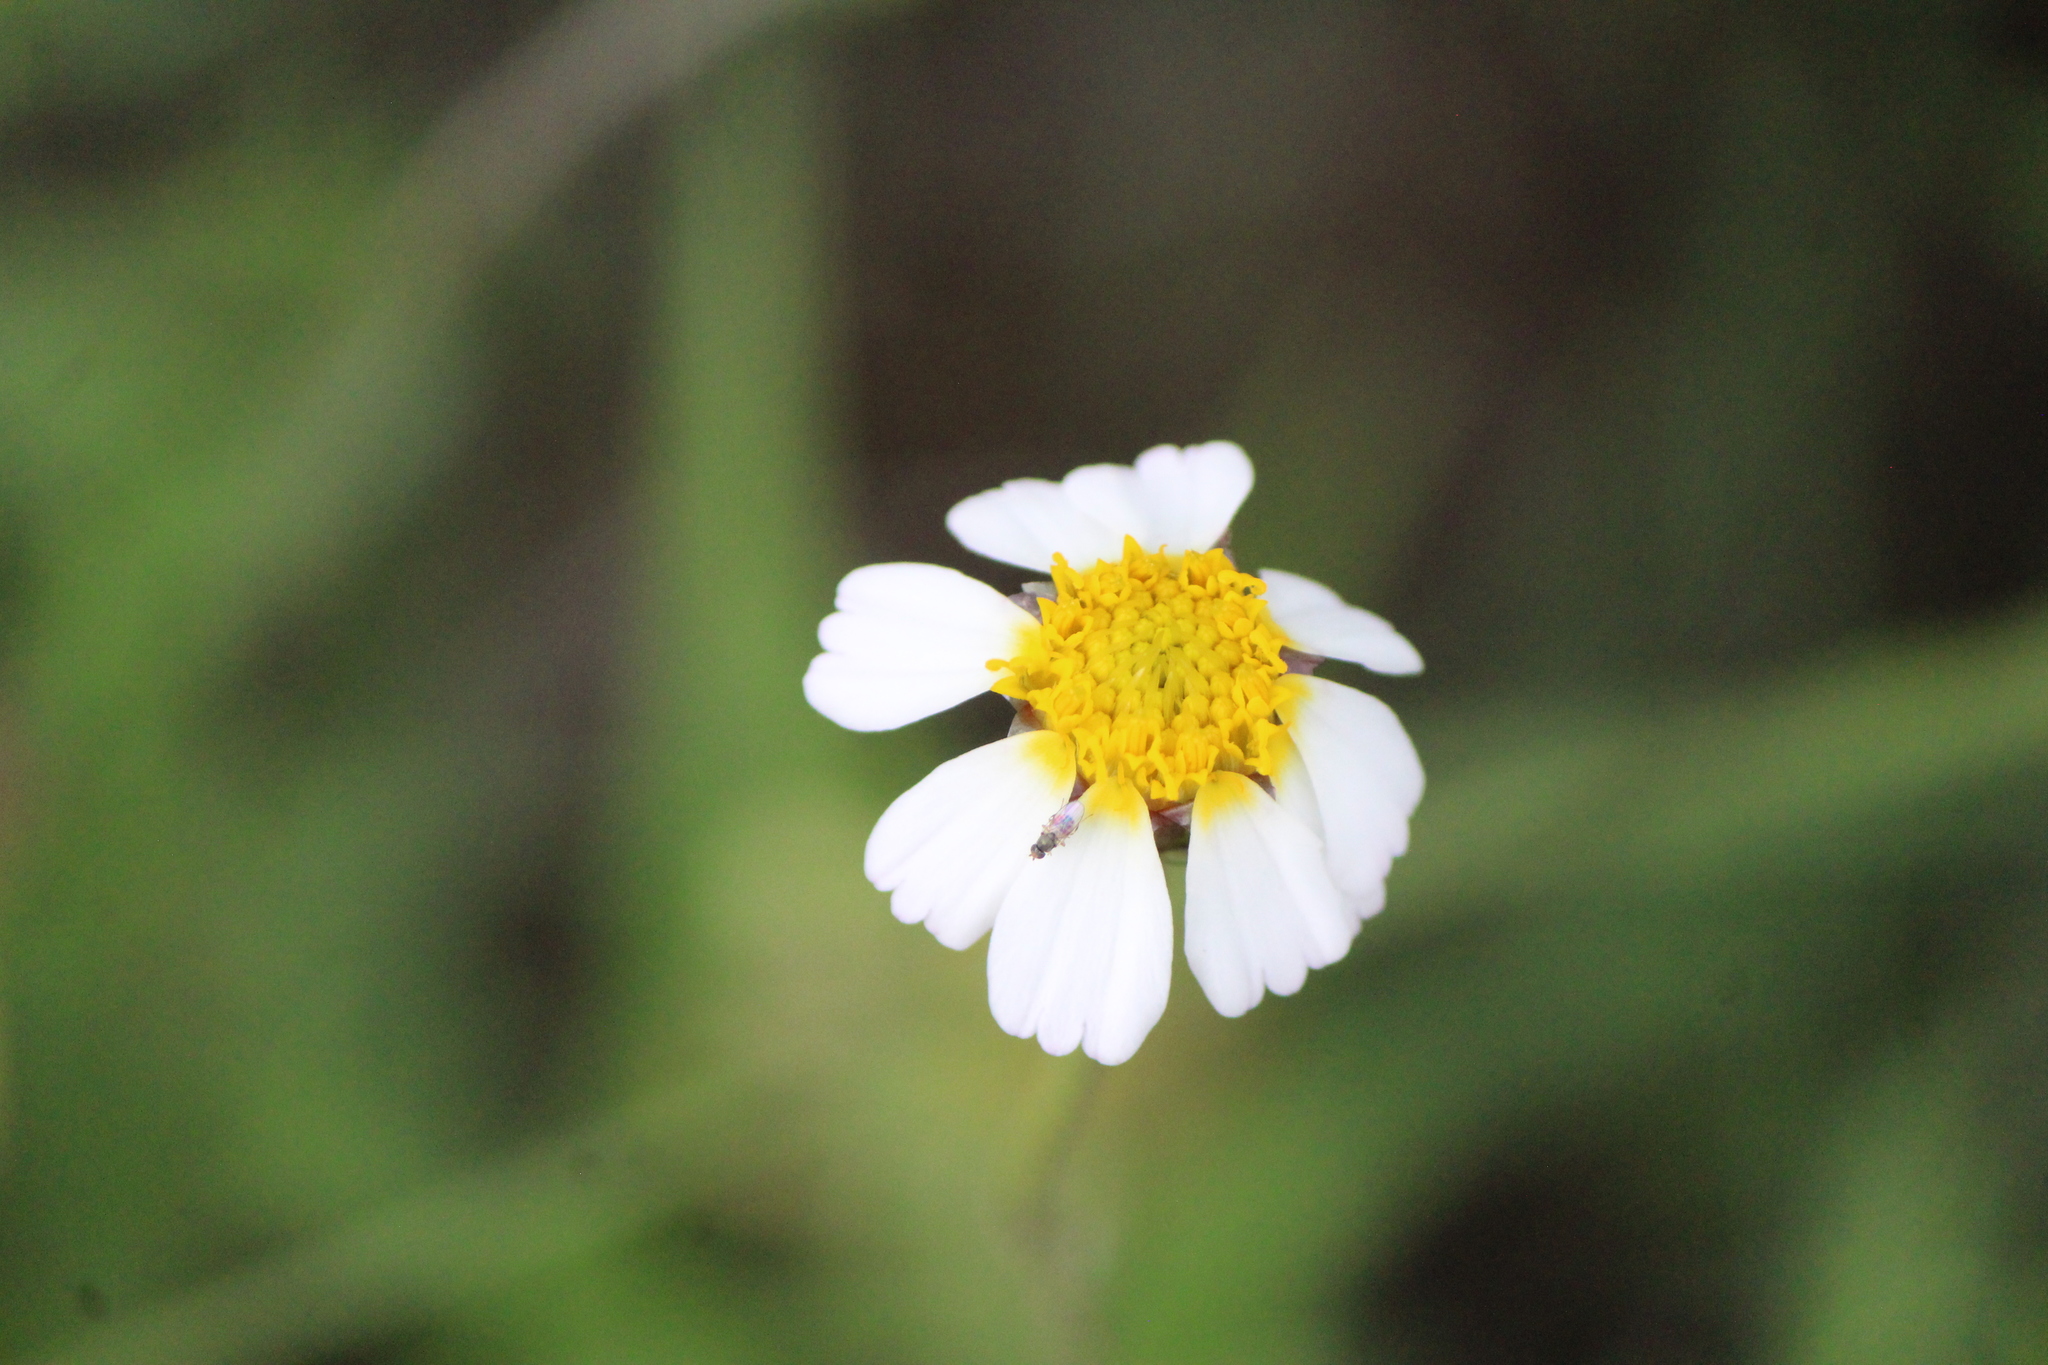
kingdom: Plantae
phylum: Tracheophyta
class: Magnoliopsida
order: Asterales
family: Asteraceae
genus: Tridax
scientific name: Tridax rosea
